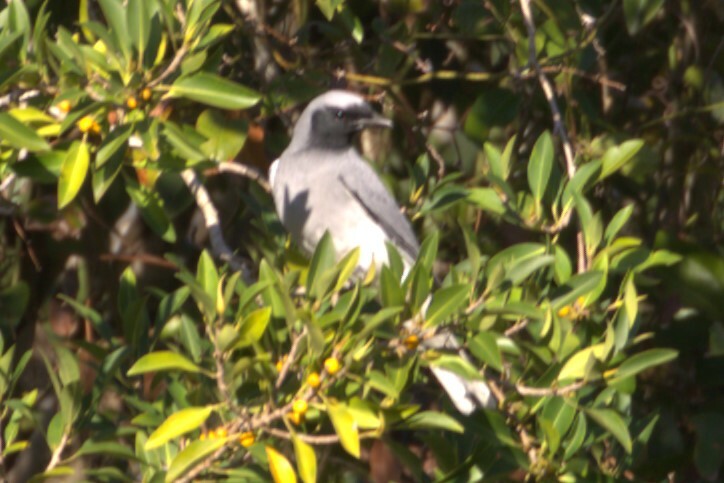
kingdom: Animalia
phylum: Chordata
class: Aves
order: Passeriformes
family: Campephagidae
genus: Coracina
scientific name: Coracina novaehollandiae
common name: Black-faced cuckooshrike
